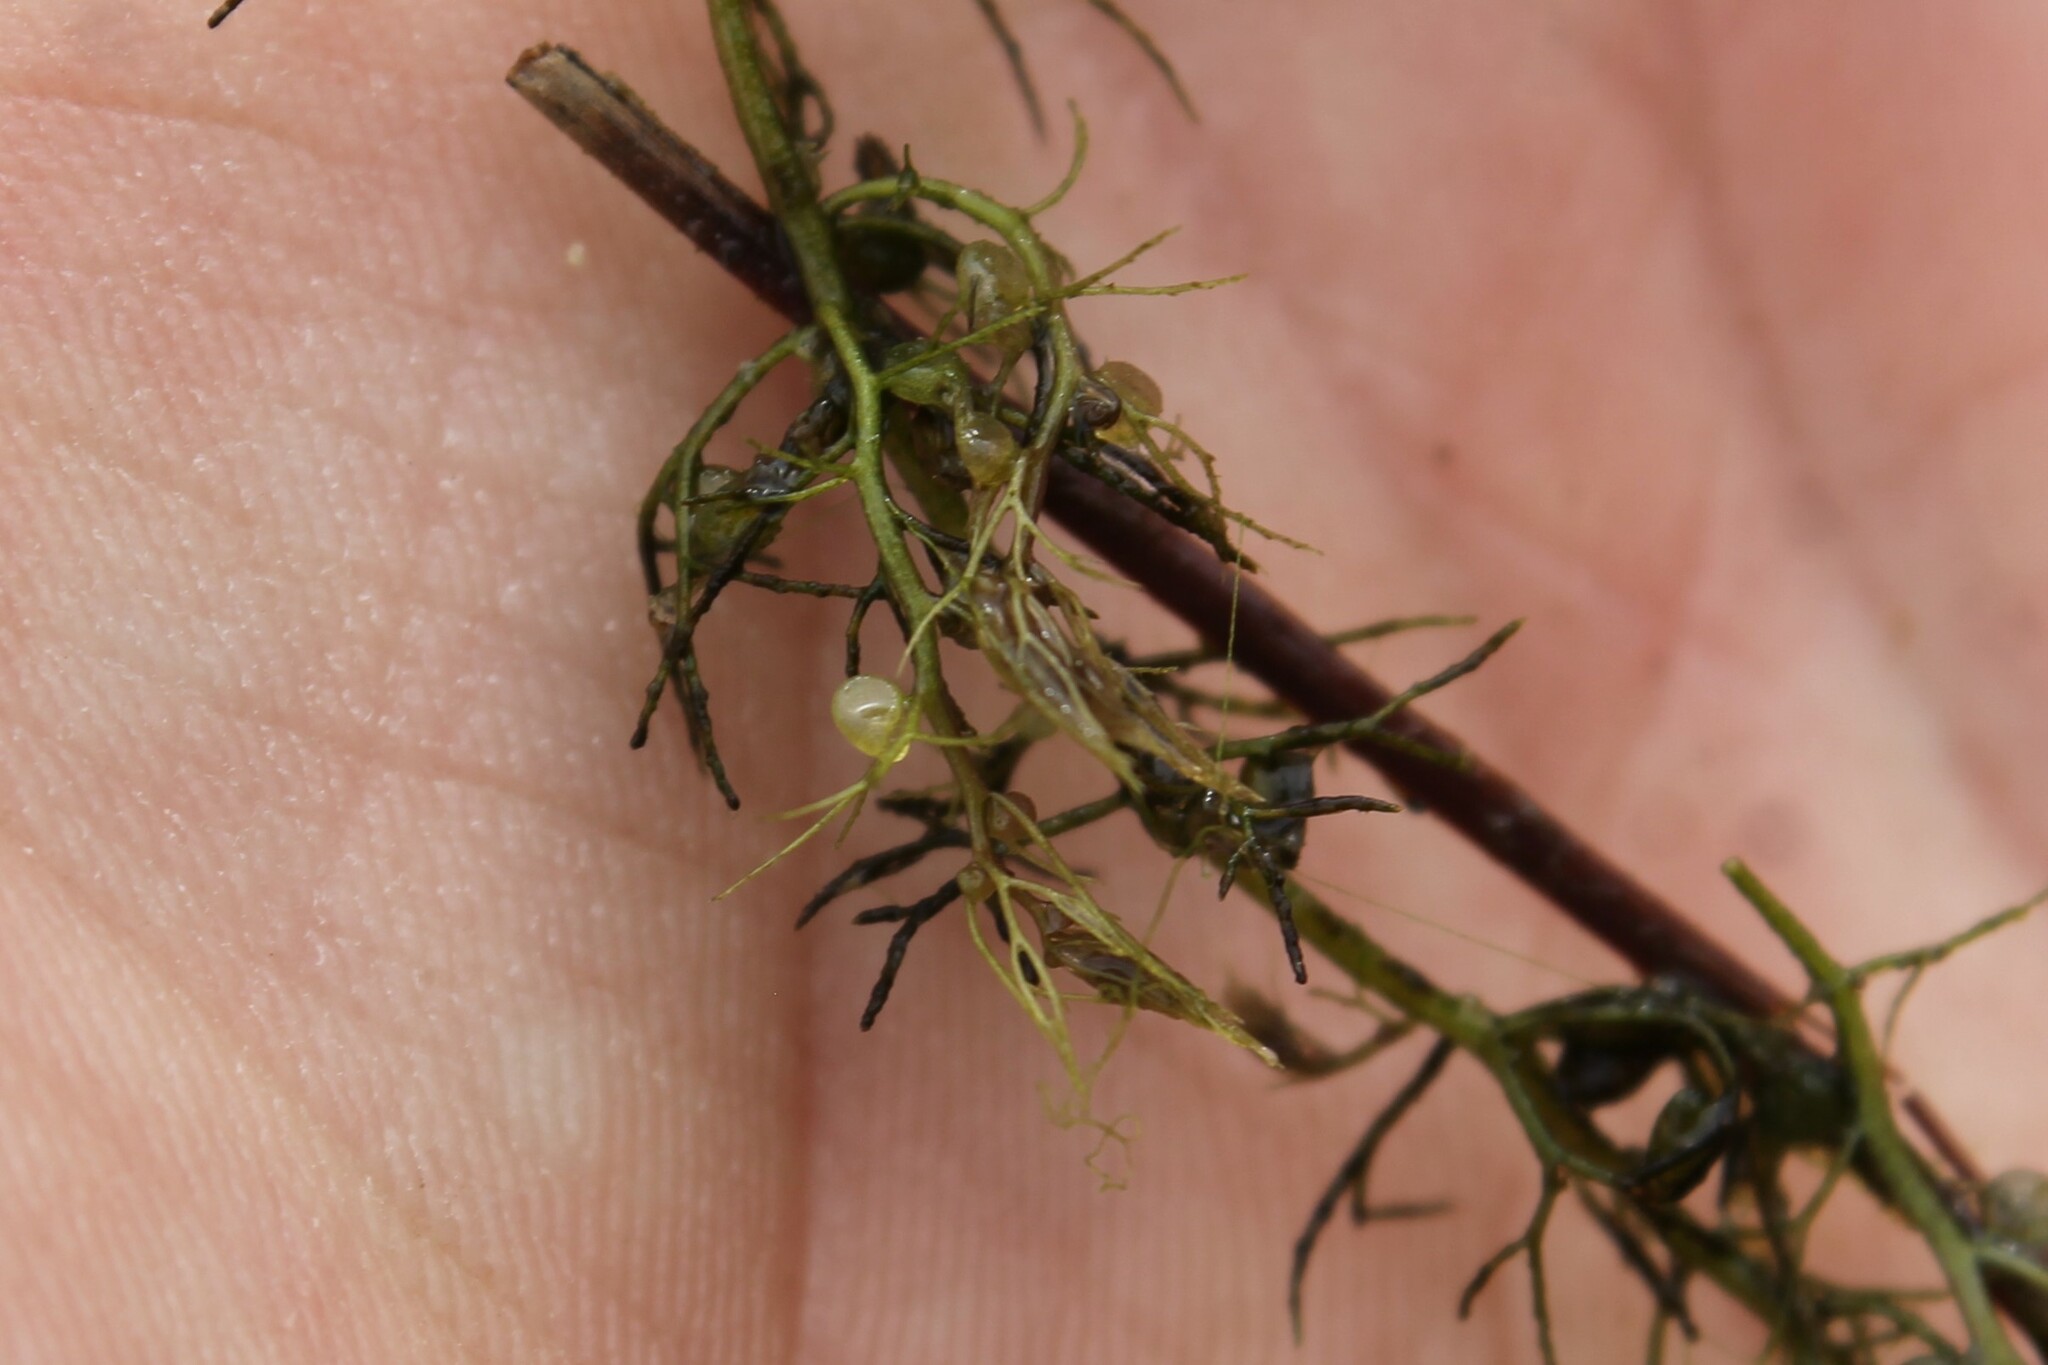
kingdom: Plantae
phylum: Tracheophyta
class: Magnoliopsida
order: Lamiales
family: Lentibulariaceae
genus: Utricularia
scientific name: Utricularia gibba
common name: Humped bladderwort
